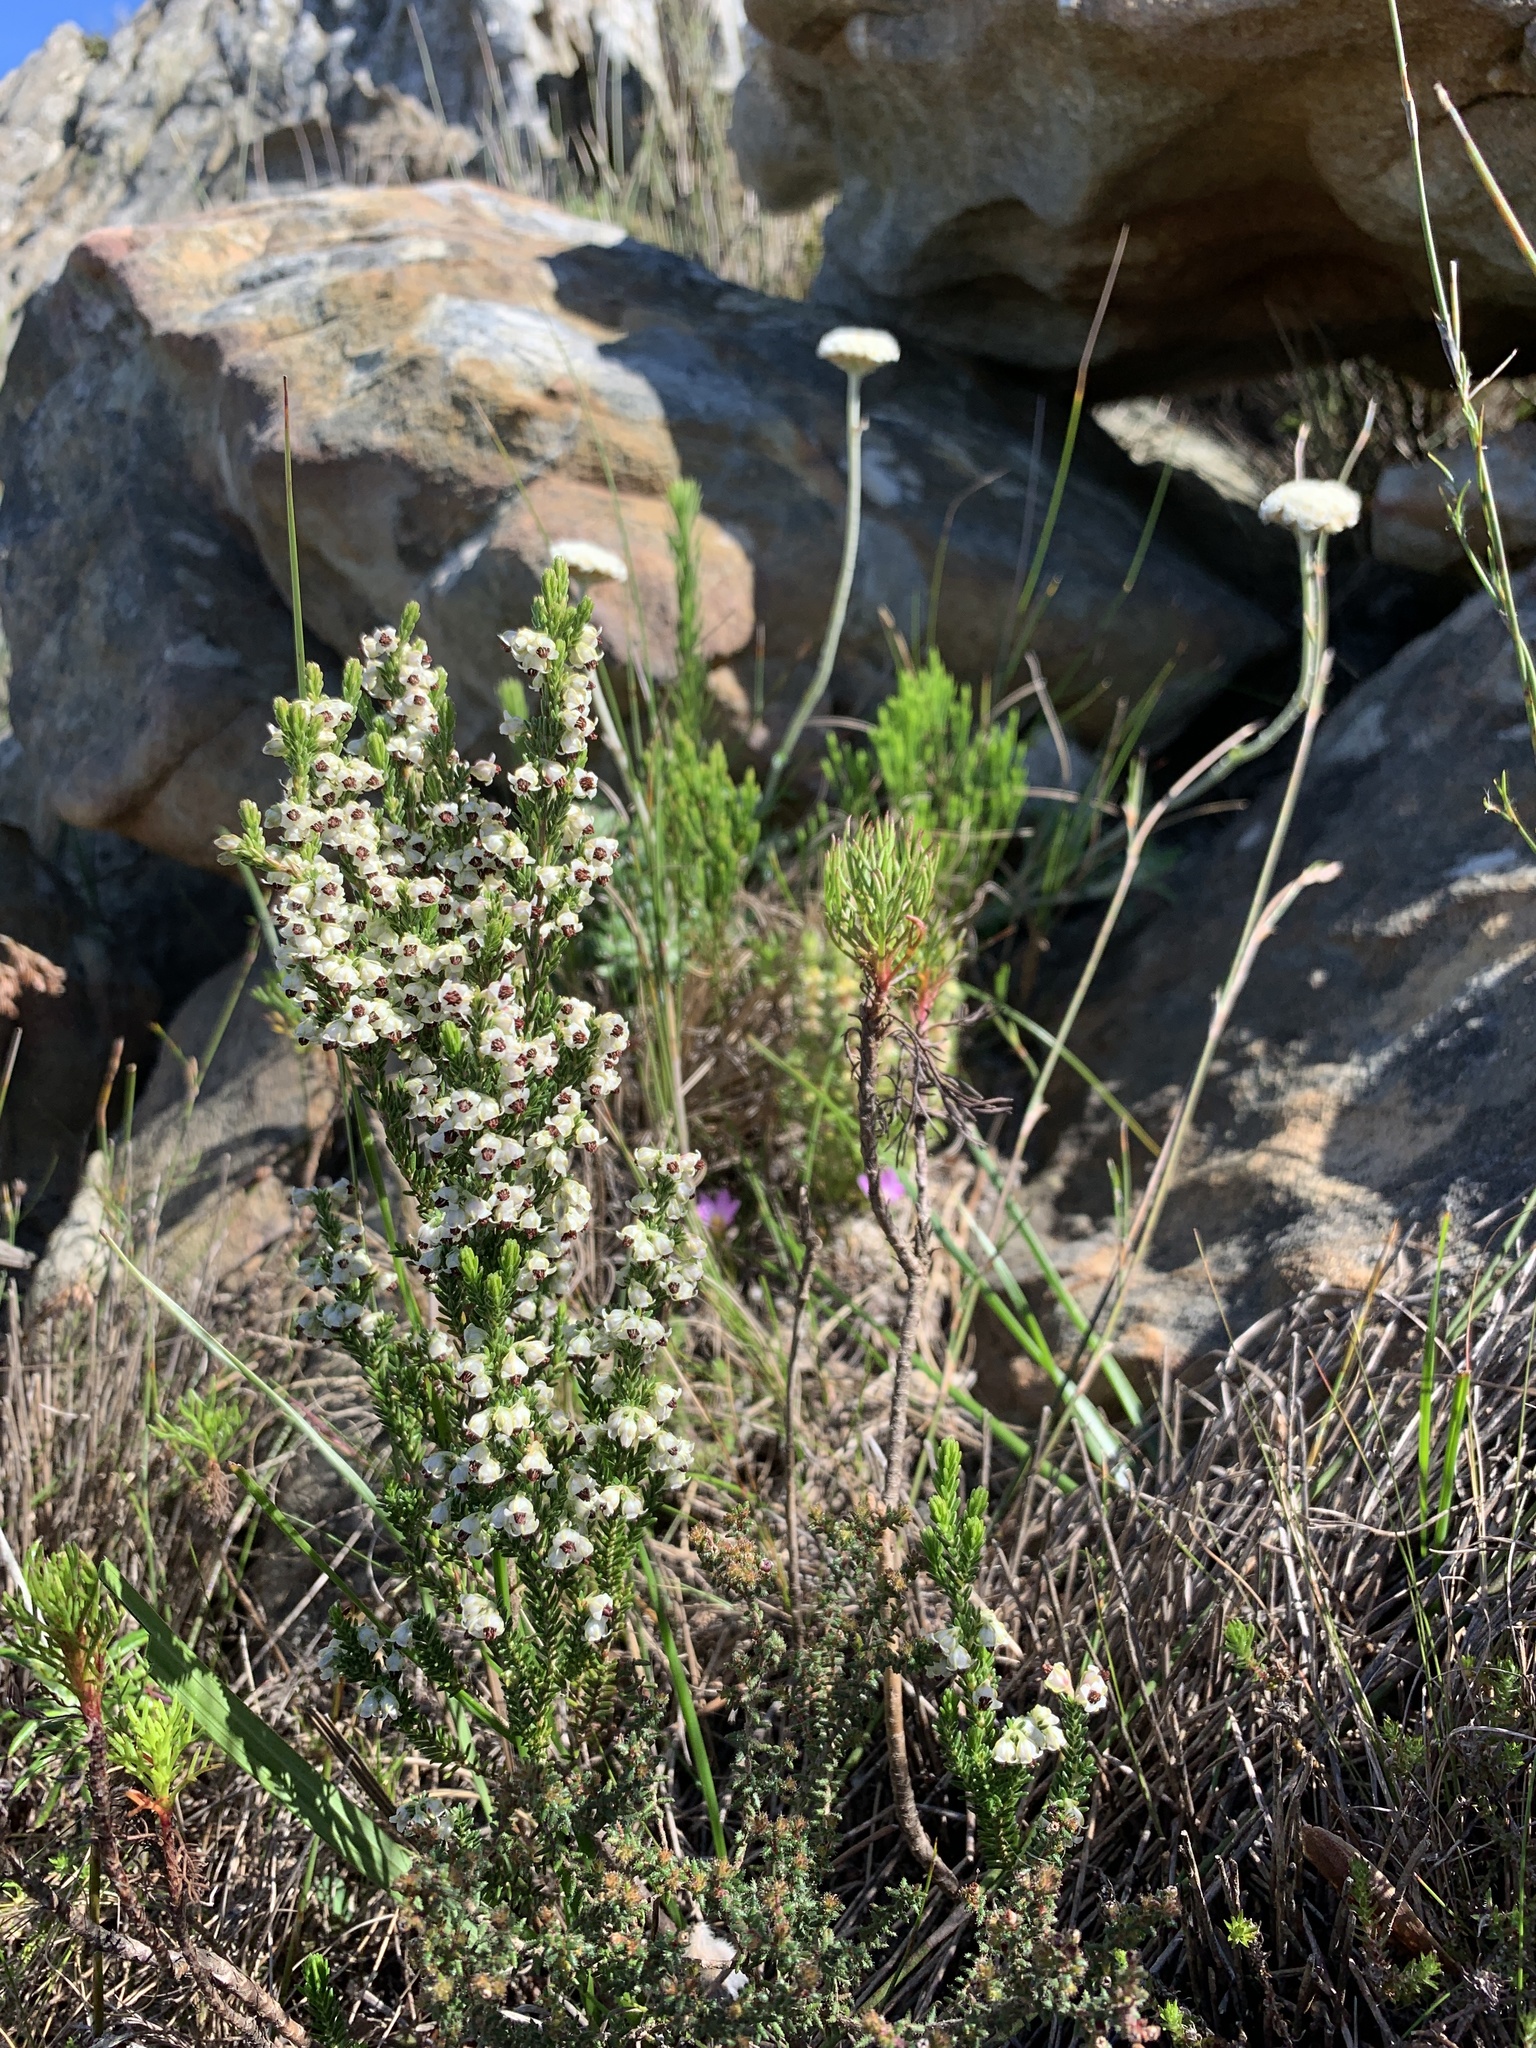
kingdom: Plantae
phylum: Tracheophyta
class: Magnoliopsida
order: Ericales
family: Ericaceae
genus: Erica
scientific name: Erica calycina
